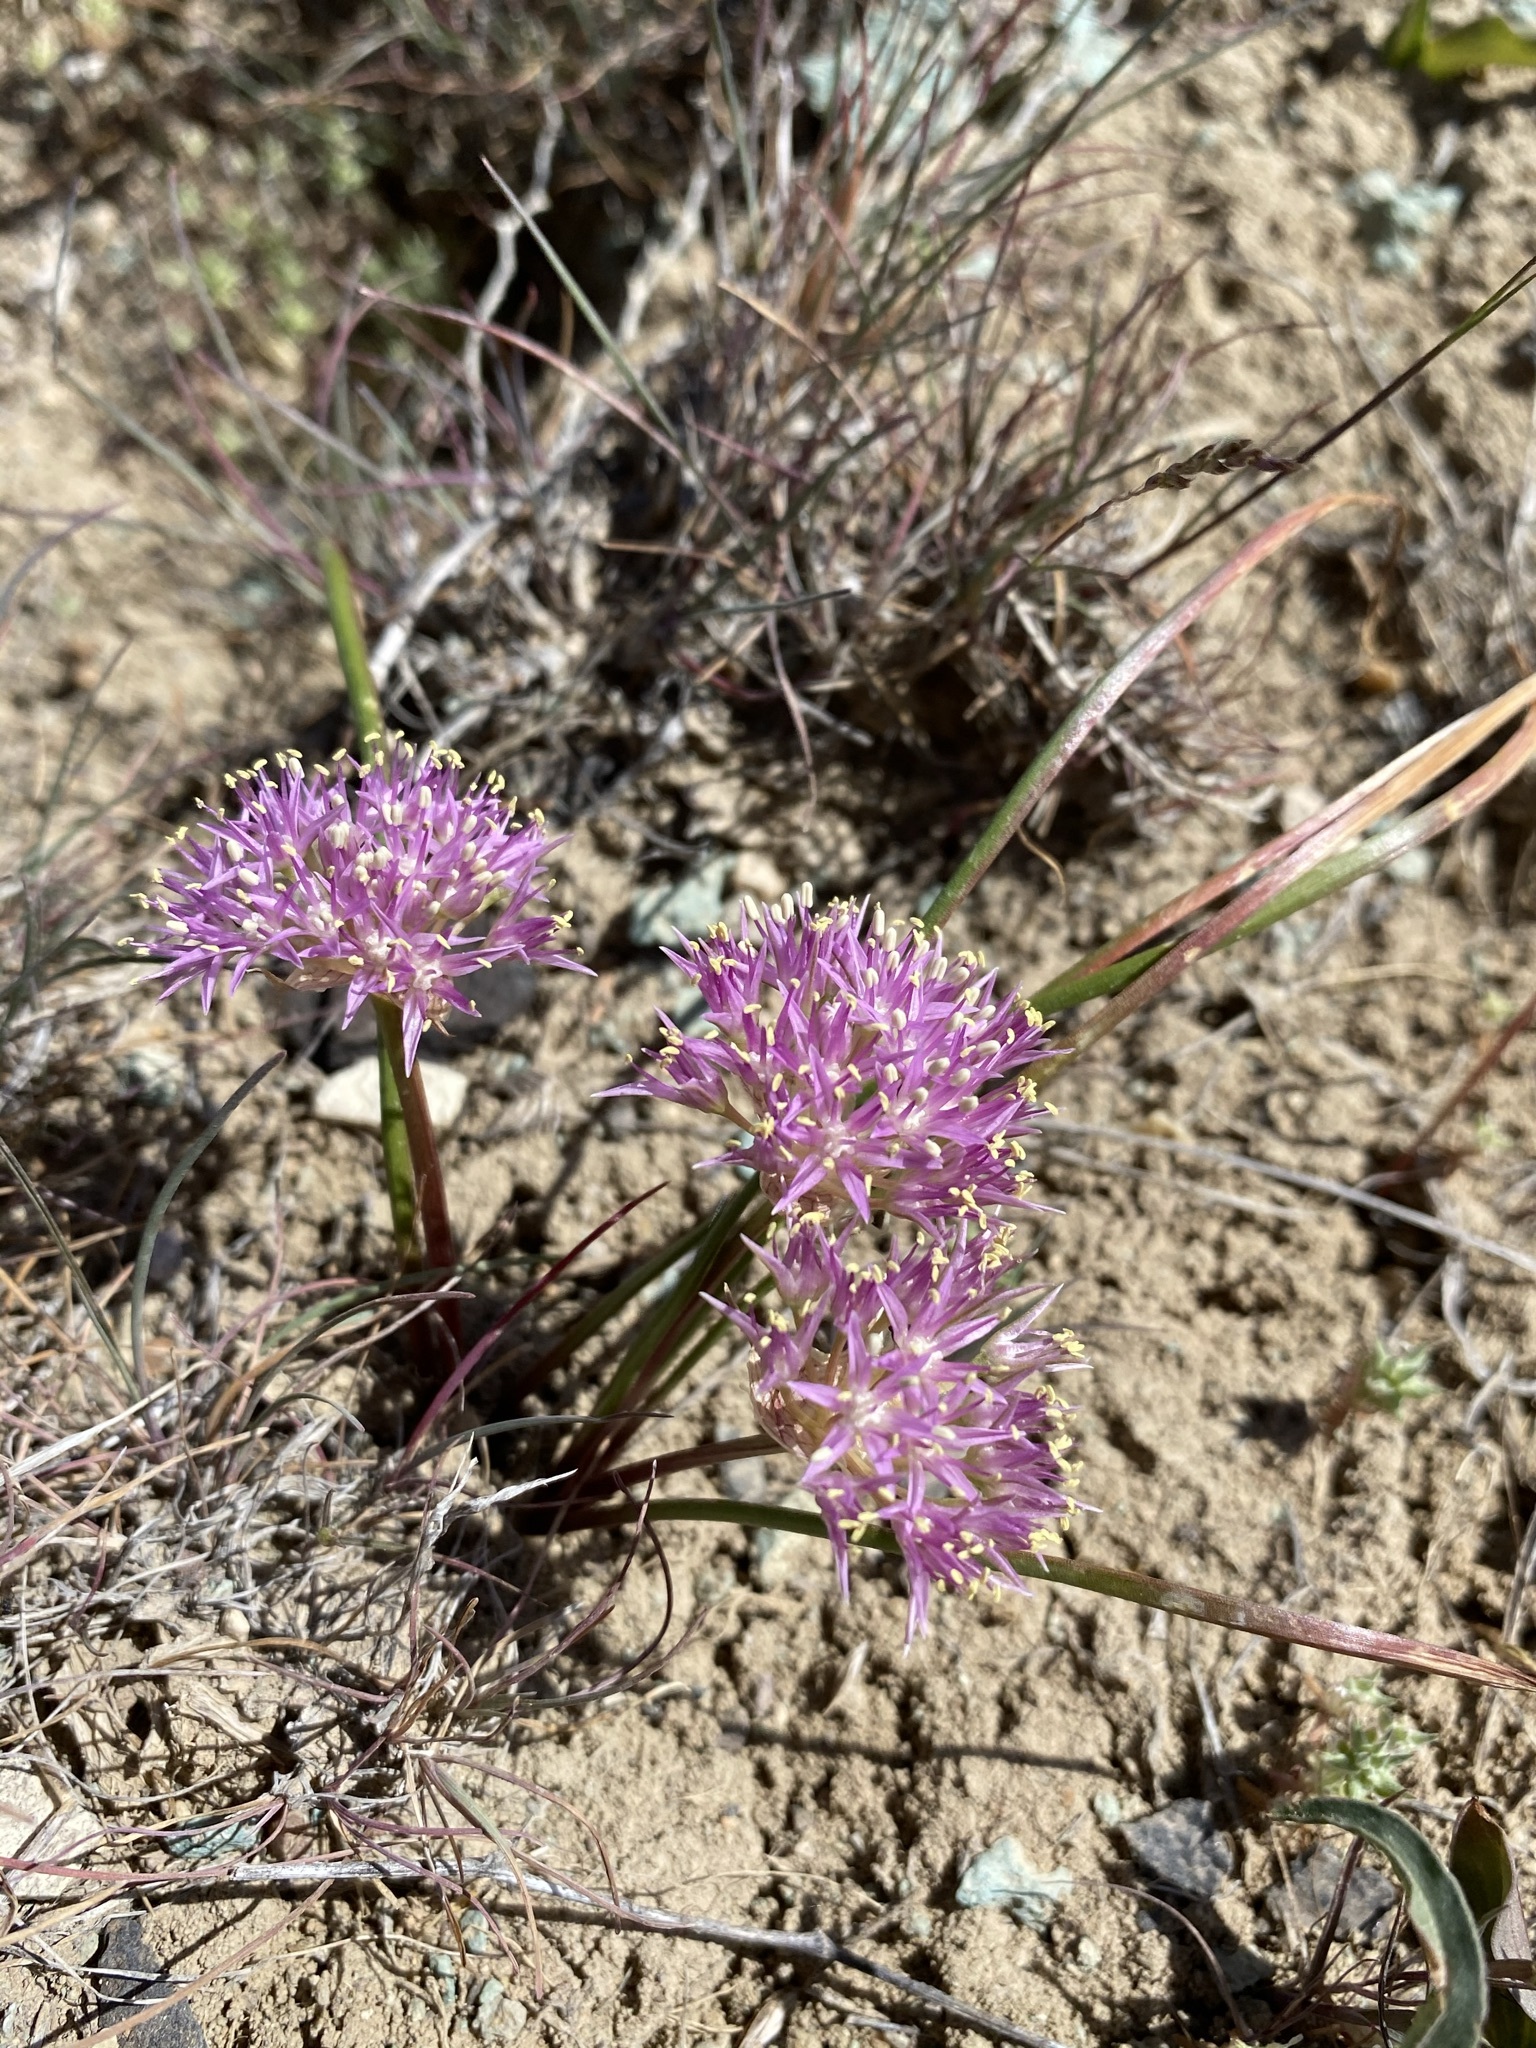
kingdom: Plantae
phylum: Tracheophyta
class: Liliopsida
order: Asparagales
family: Amaryllidaceae
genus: Allium
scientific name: Allium anceps
